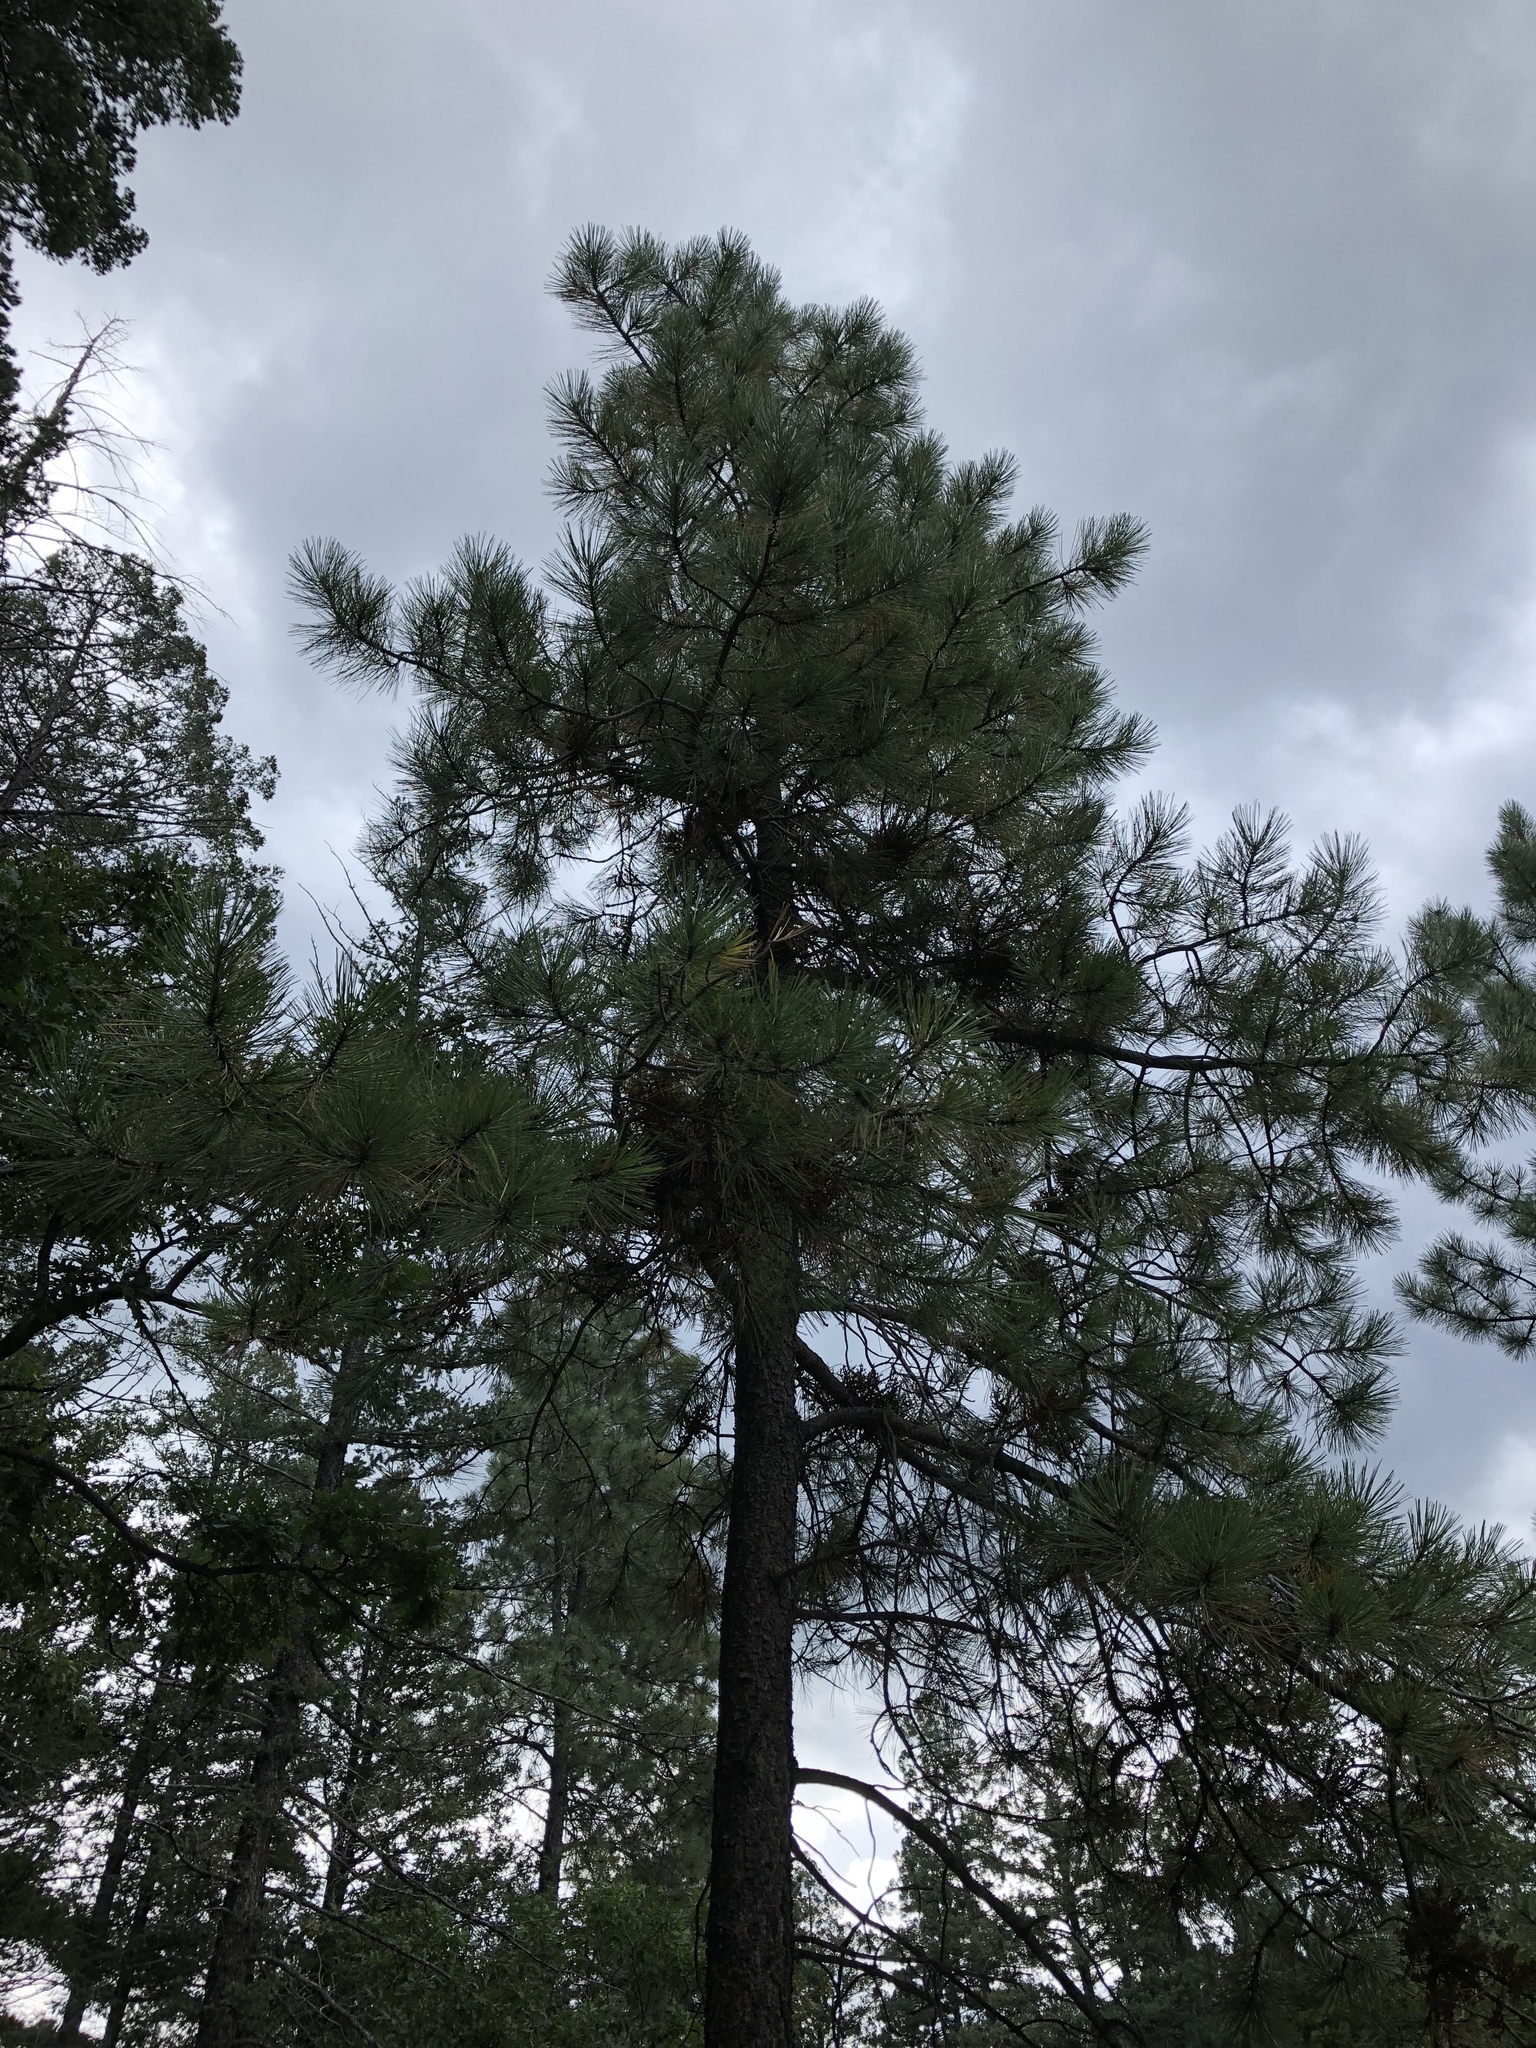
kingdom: Plantae
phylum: Tracheophyta
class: Pinopsida
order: Pinales
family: Pinaceae
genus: Pinus
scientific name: Pinus ponderosa
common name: Western yellow-pine
